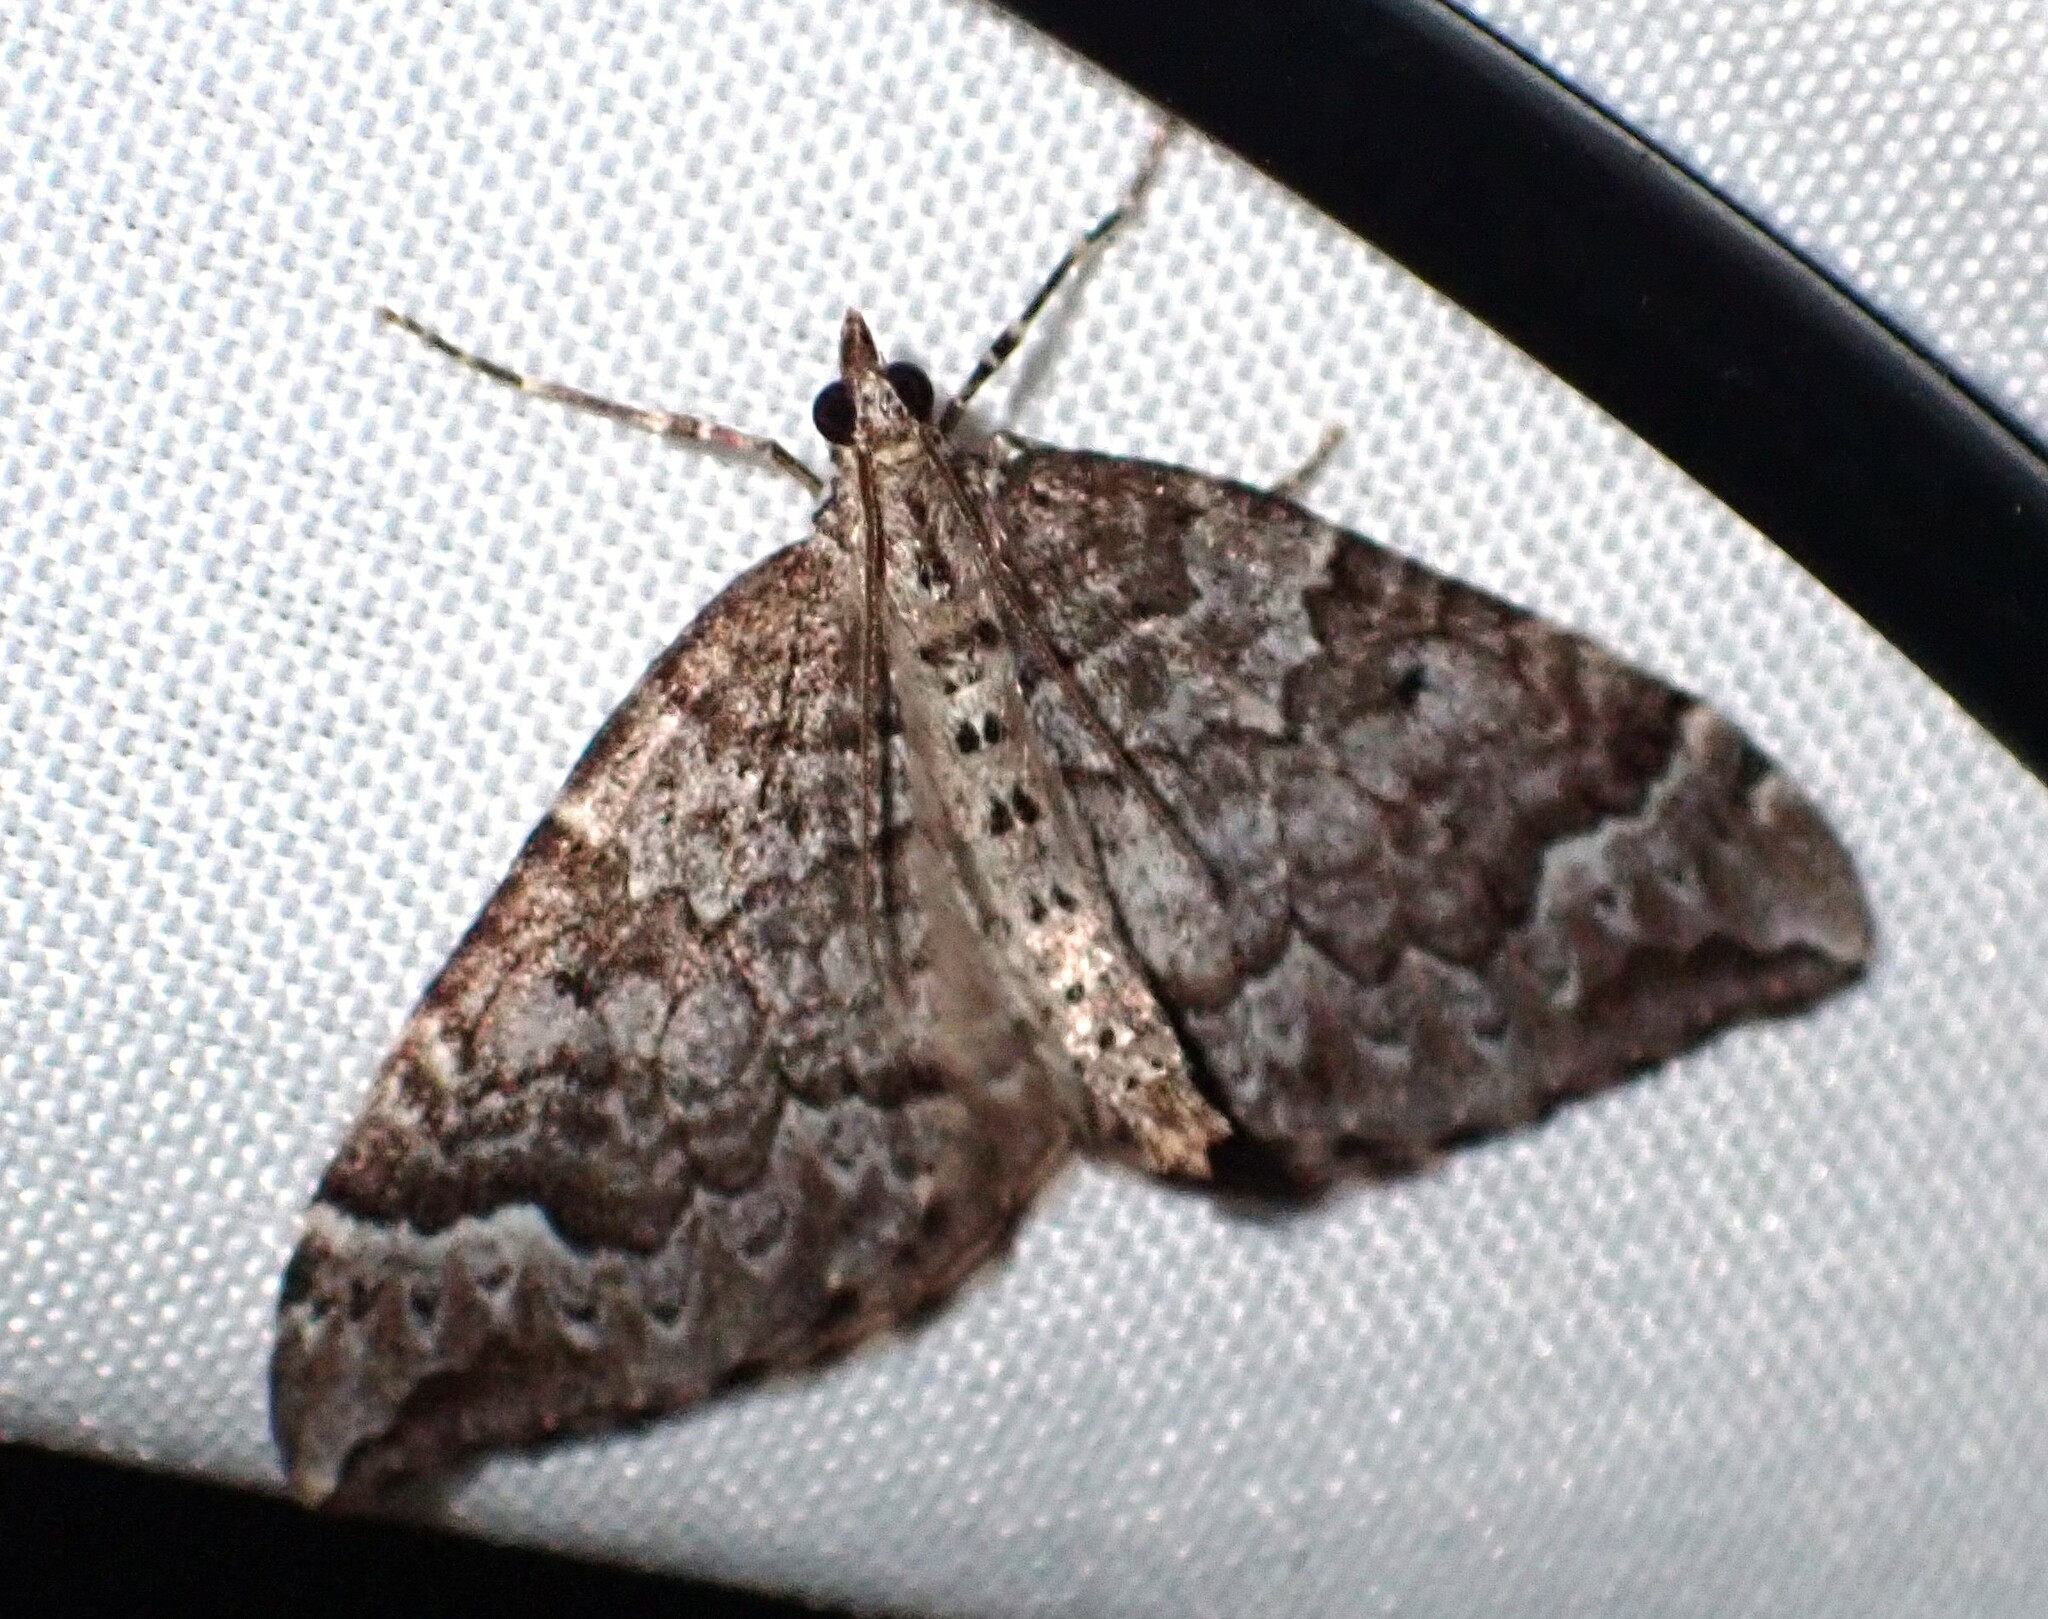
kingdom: Animalia
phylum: Arthropoda
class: Insecta
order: Lepidoptera
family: Geometridae
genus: Eulithis
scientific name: Eulithis destinata
